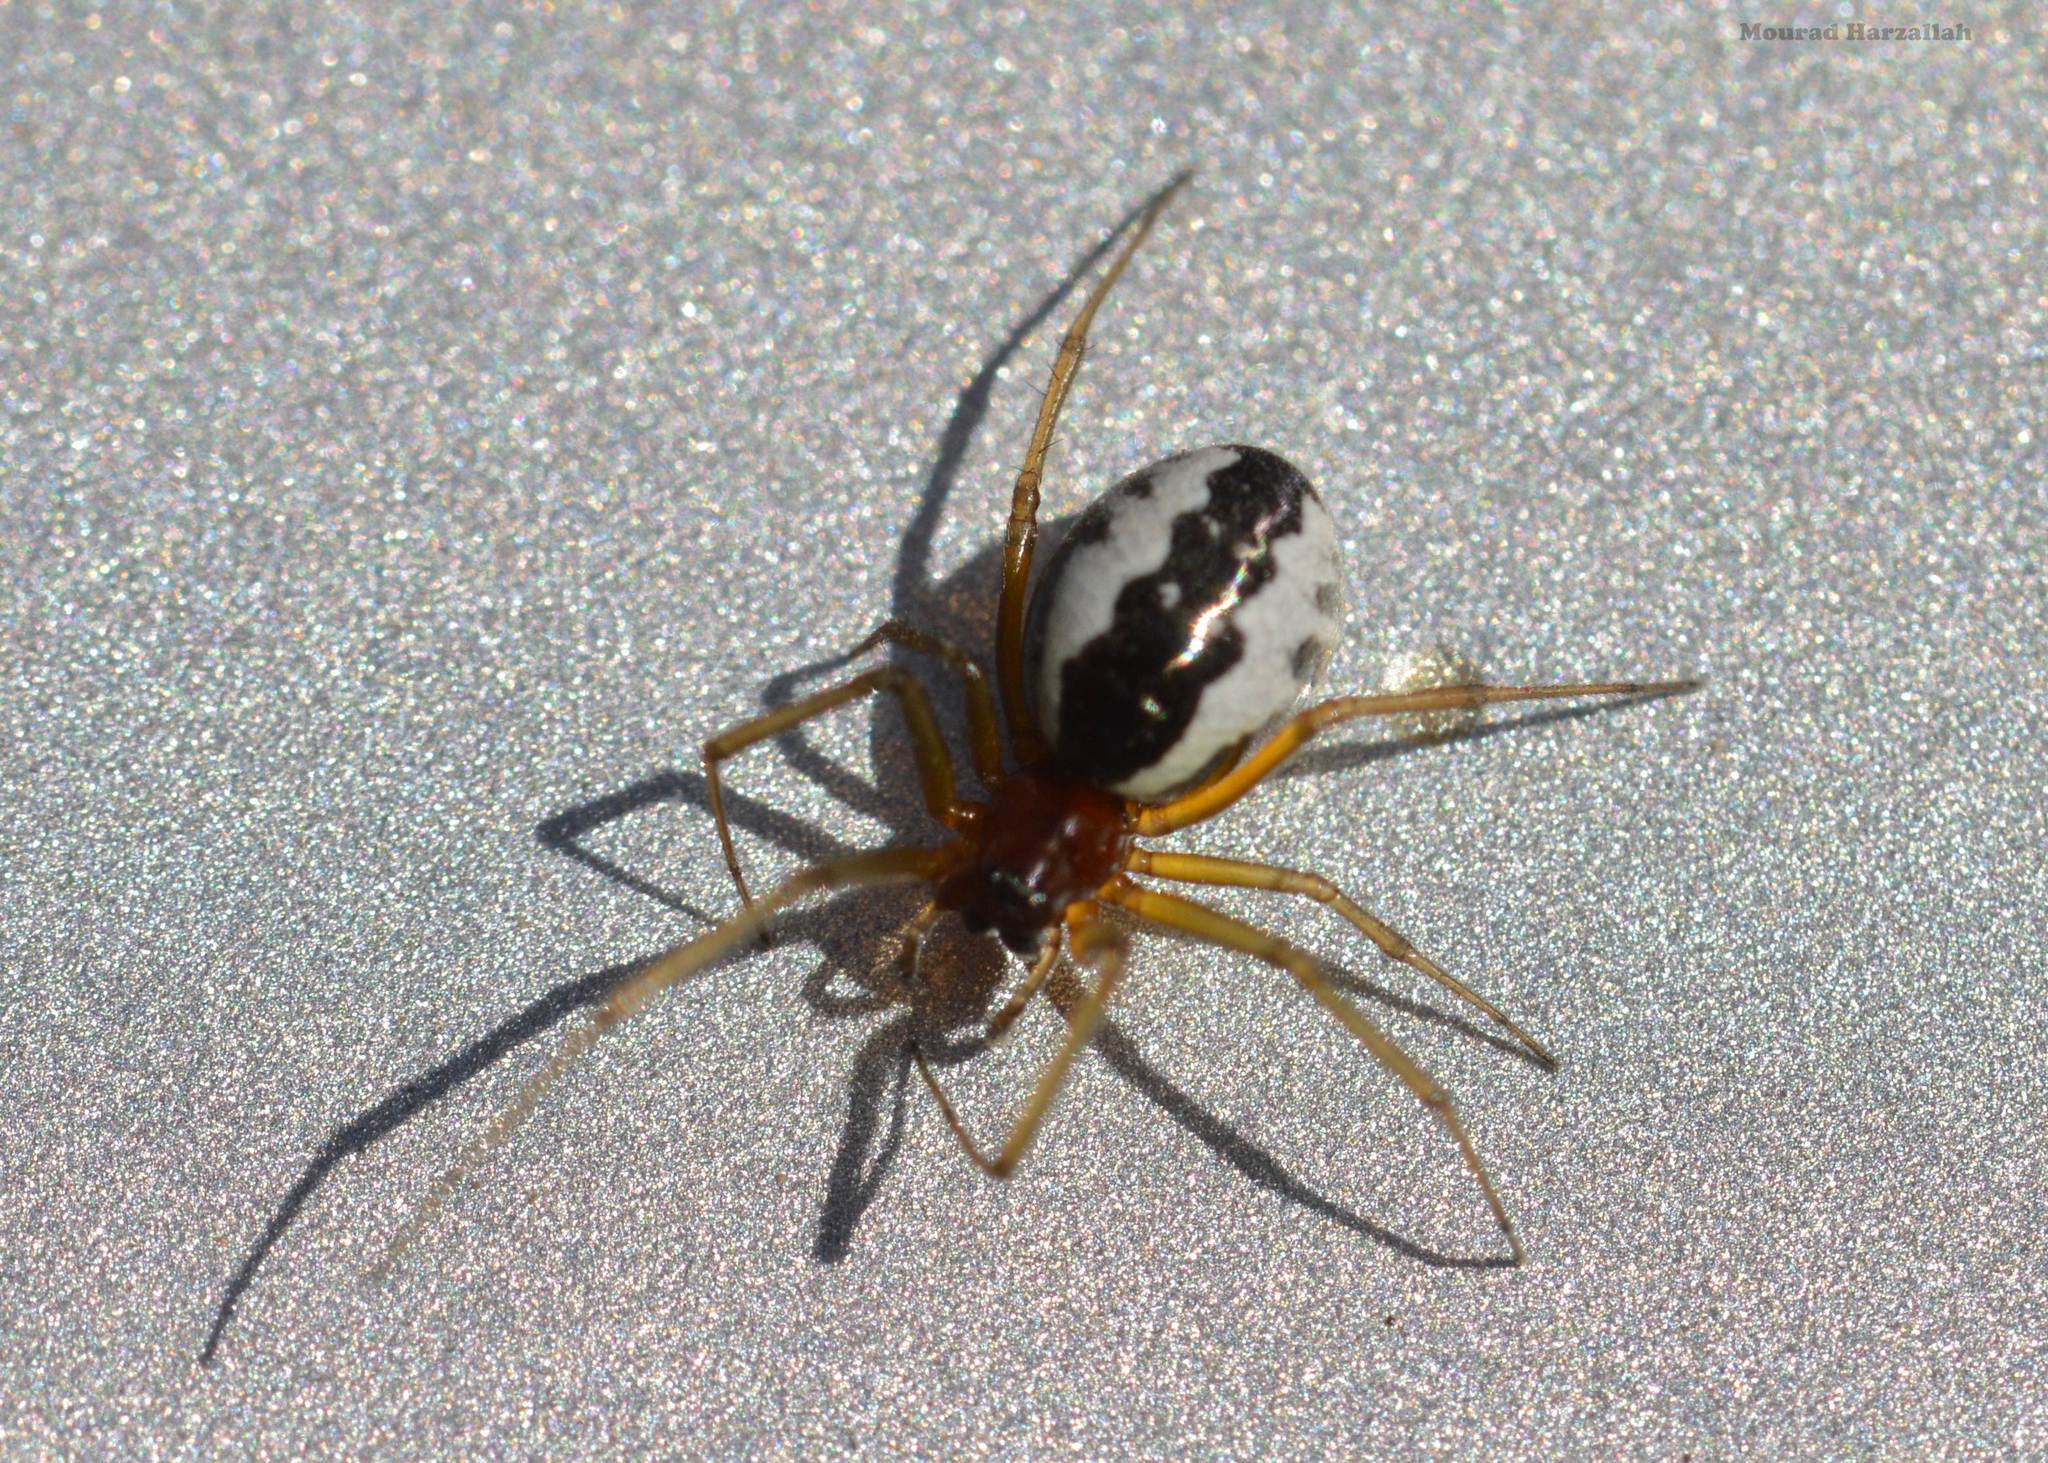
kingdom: Animalia
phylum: Arthropoda
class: Arachnida
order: Araneae
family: Linyphiidae
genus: Frontinellina
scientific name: Frontinellina frutetorum
